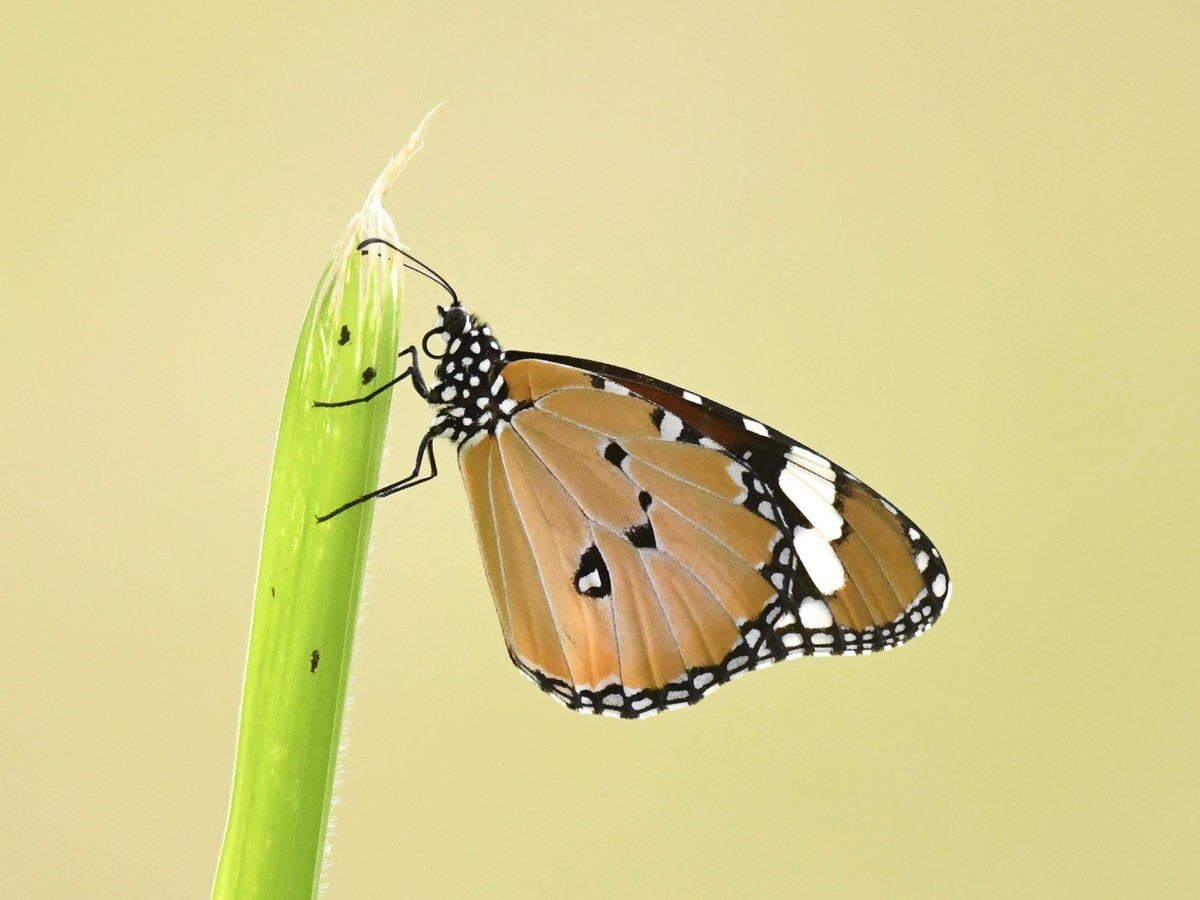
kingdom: Animalia
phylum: Arthropoda
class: Insecta
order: Lepidoptera
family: Nymphalidae
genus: Danaus
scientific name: Danaus chrysippus
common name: Plain tiger
